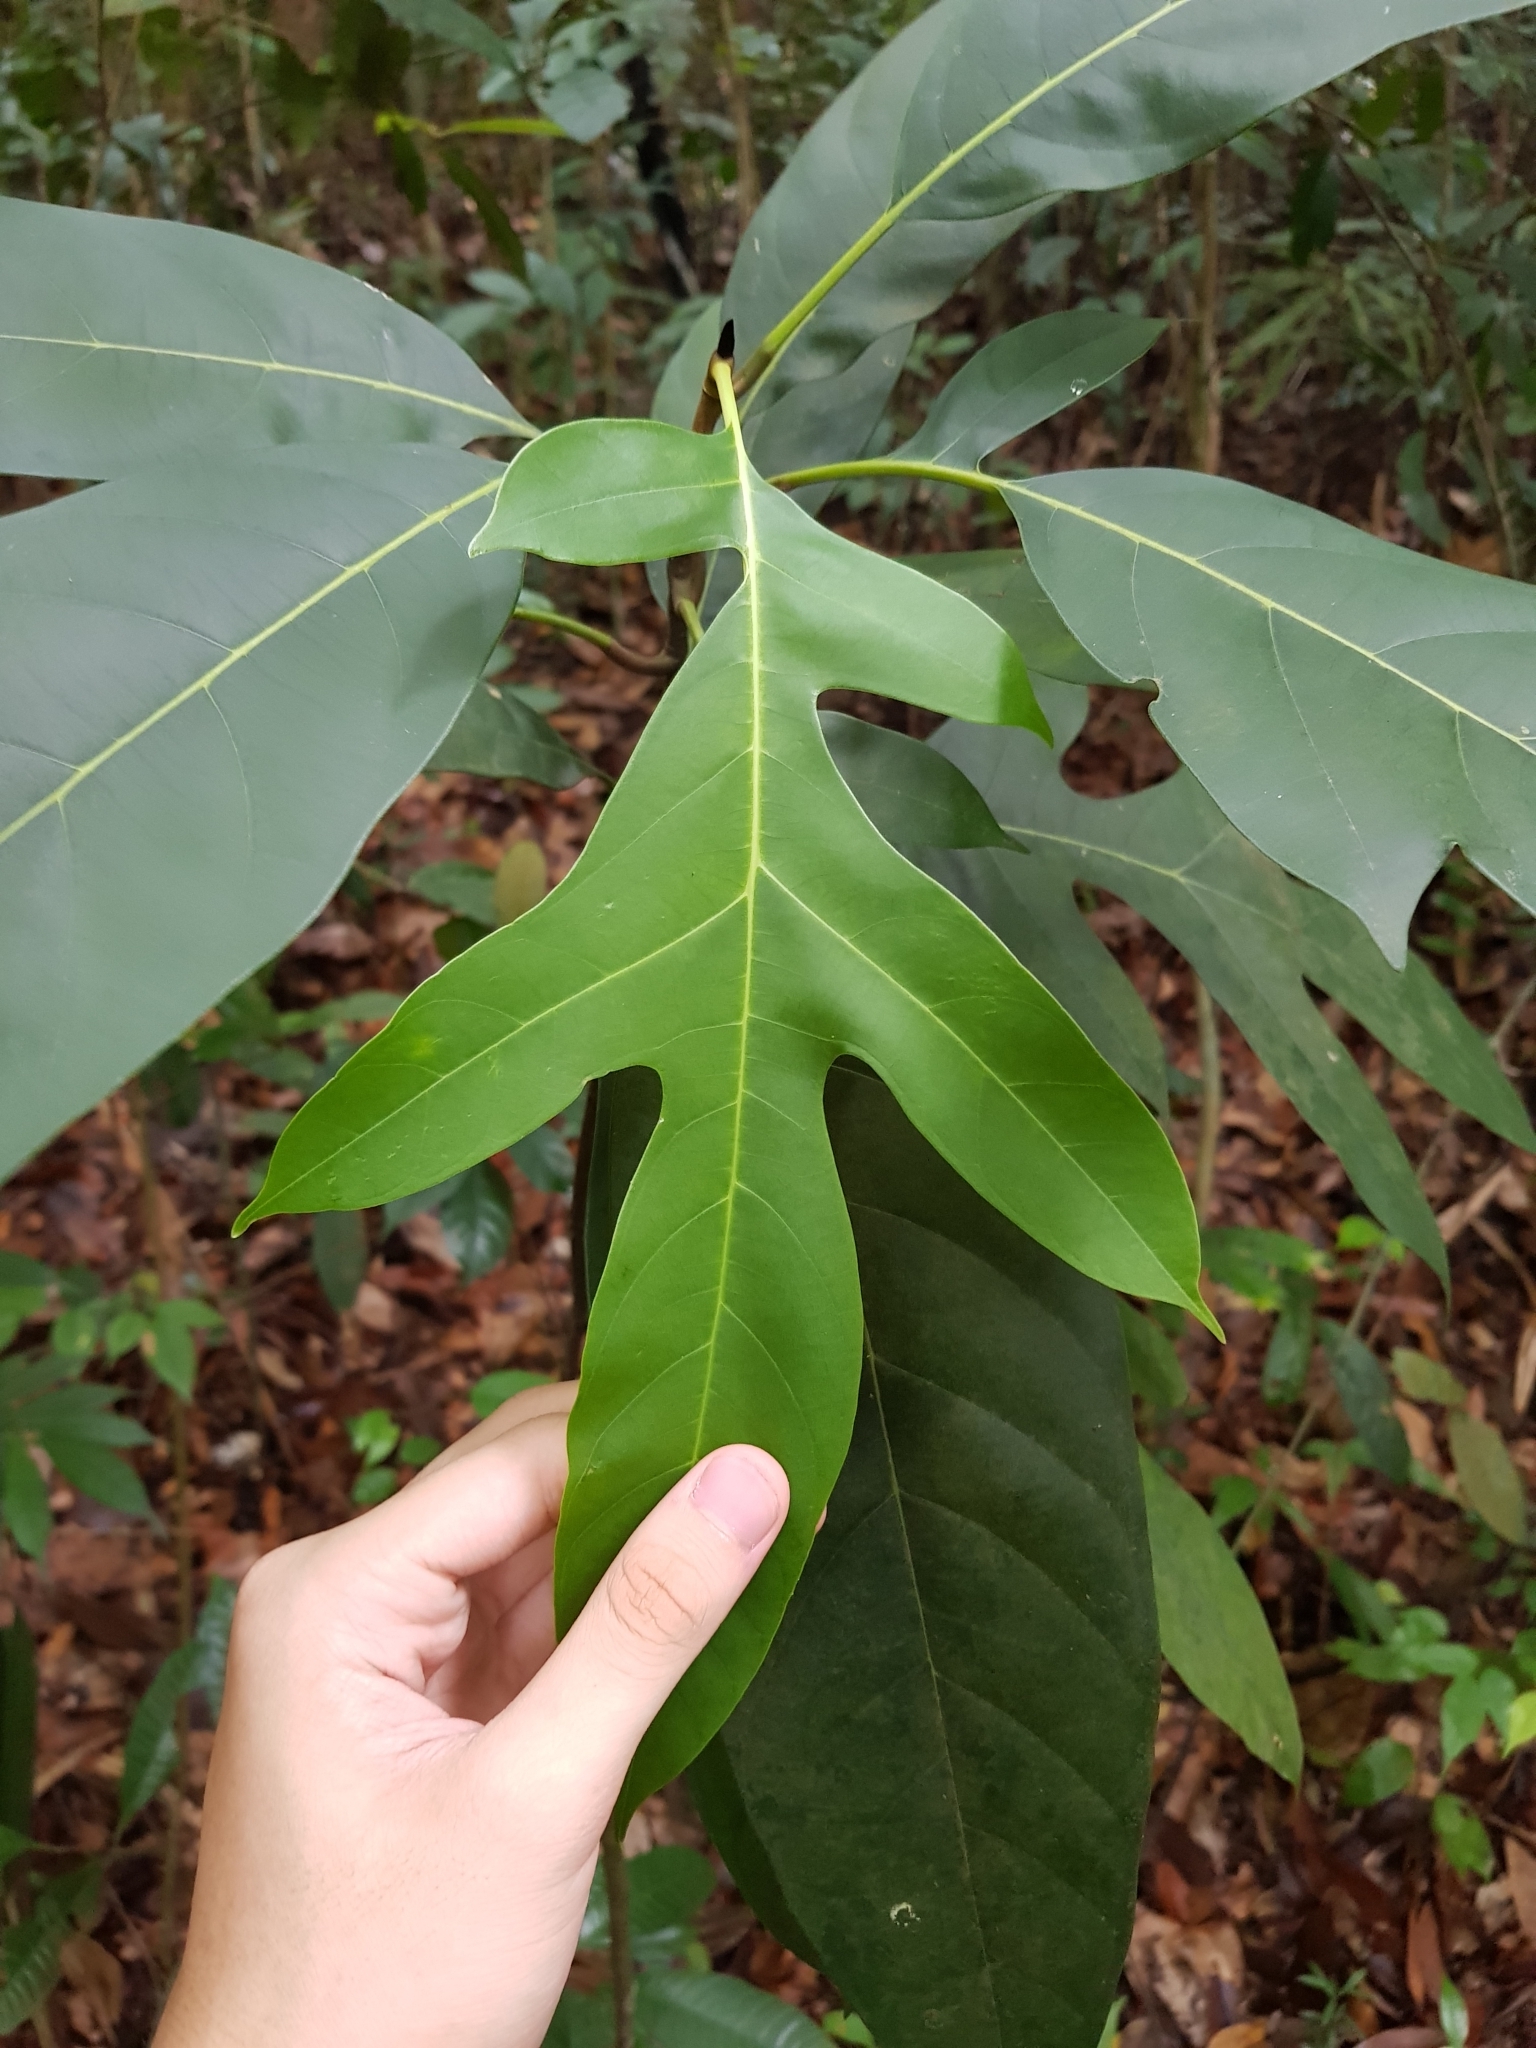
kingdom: Plantae
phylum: Tracheophyta
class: Magnoliopsida
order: Rosales
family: Moraceae
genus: Artocarpus
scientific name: Artocarpus lanceifolius
